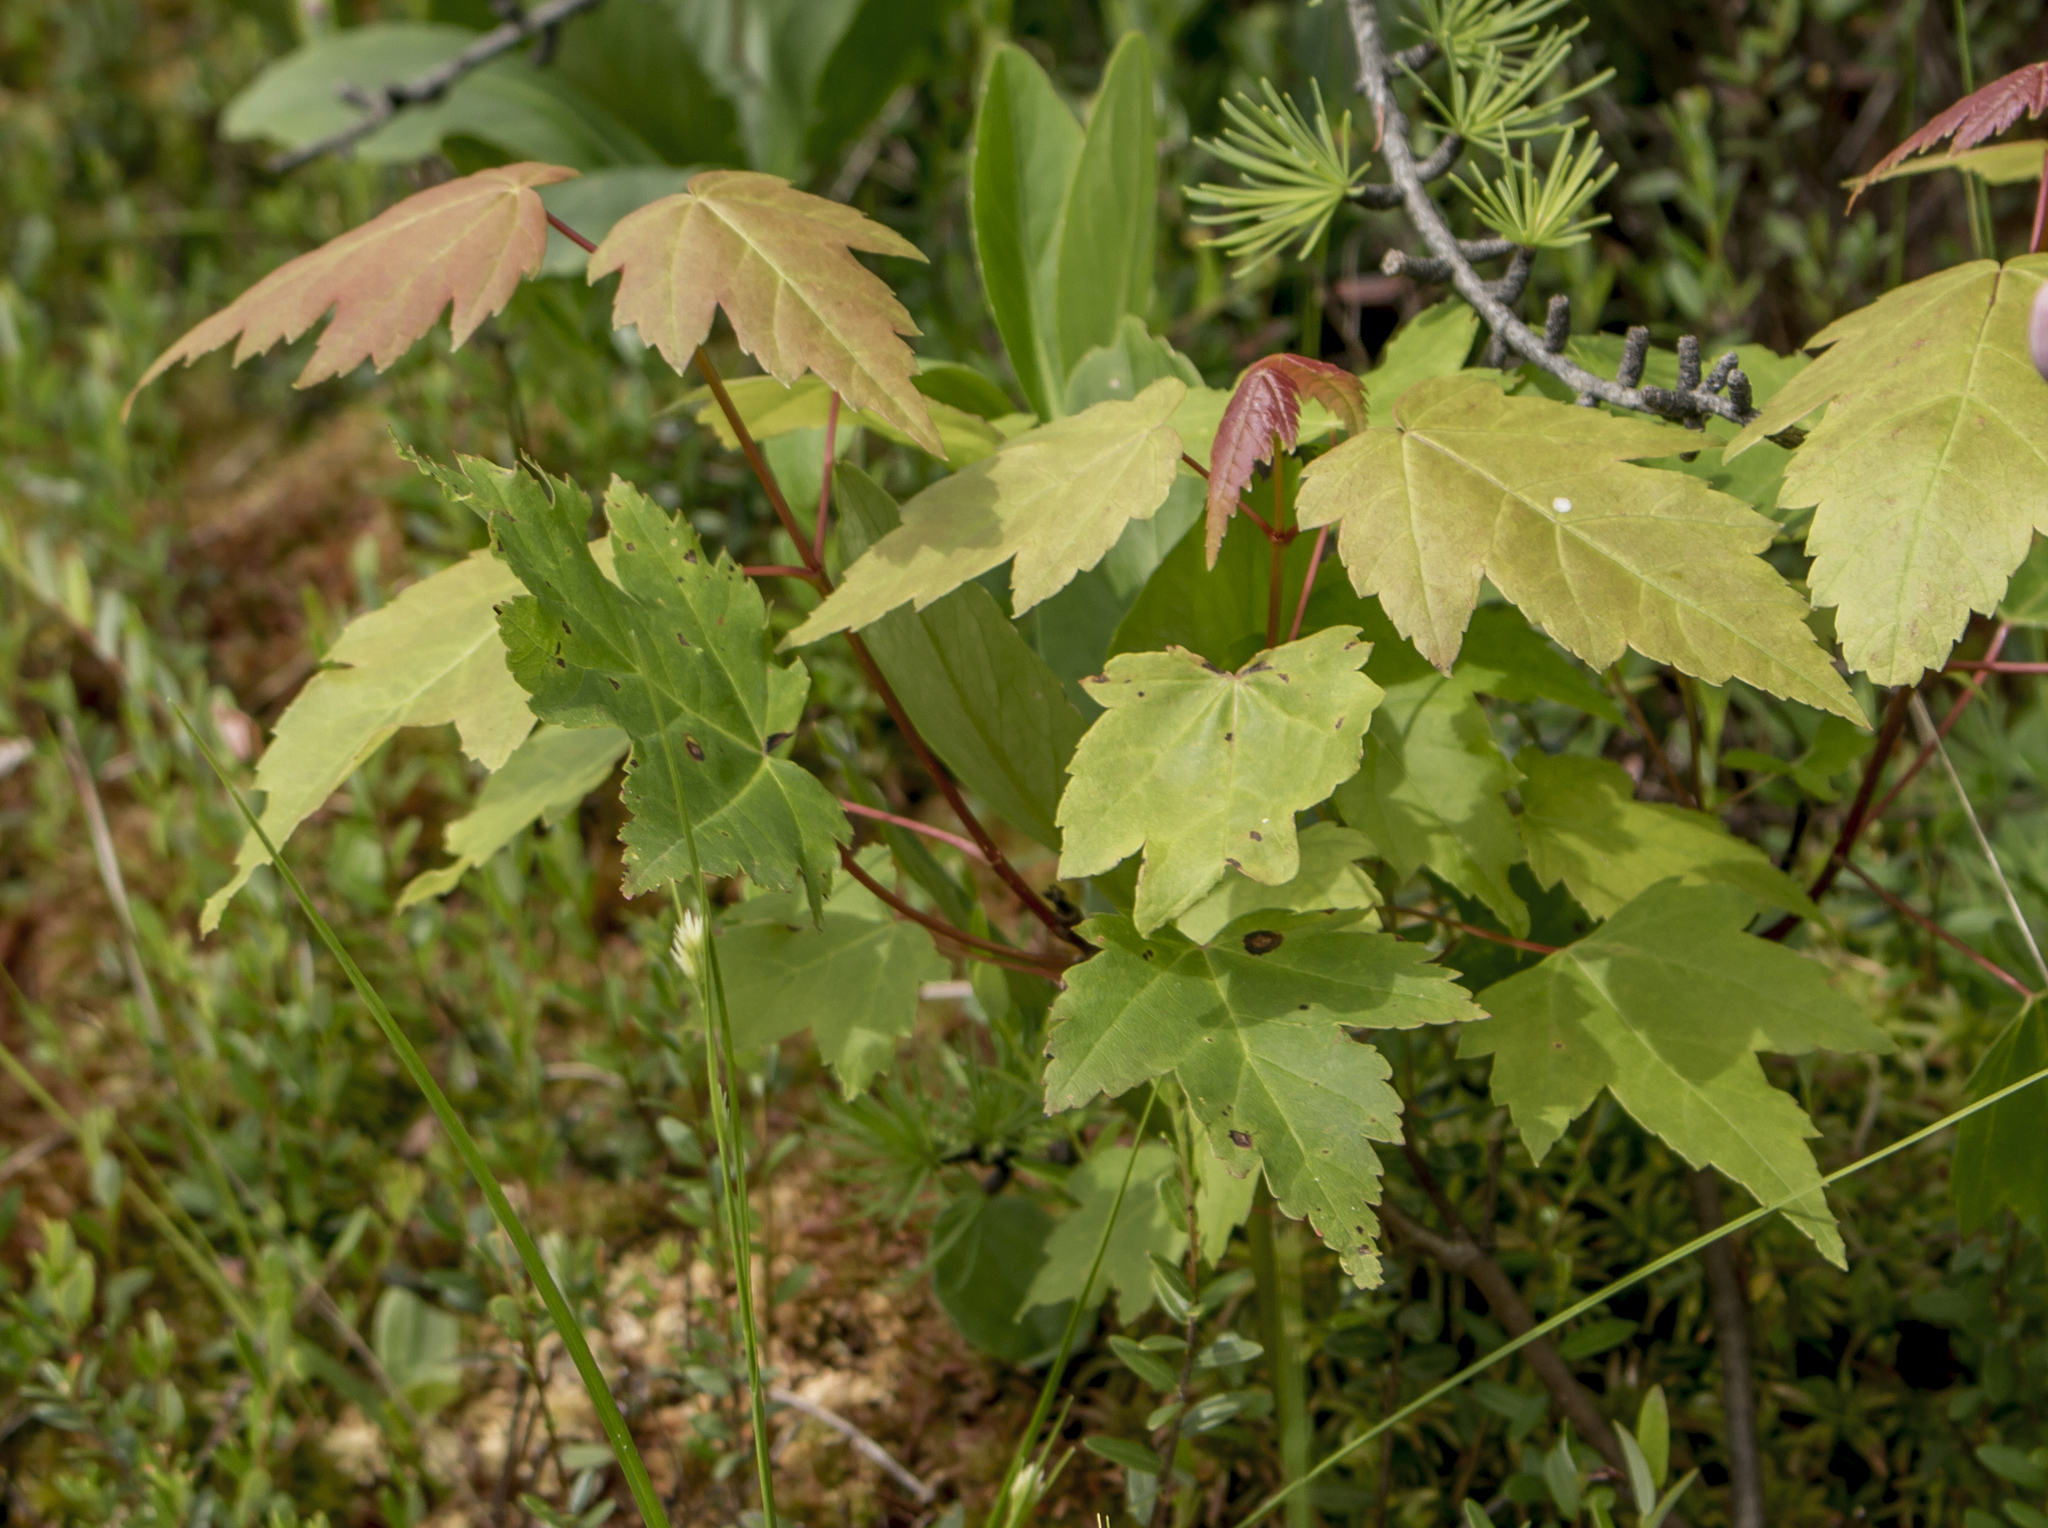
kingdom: Plantae
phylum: Tracheophyta
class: Magnoliopsida
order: Sapindales
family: Sapindaceae
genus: Acer
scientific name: Acer rubrum
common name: Red maple
